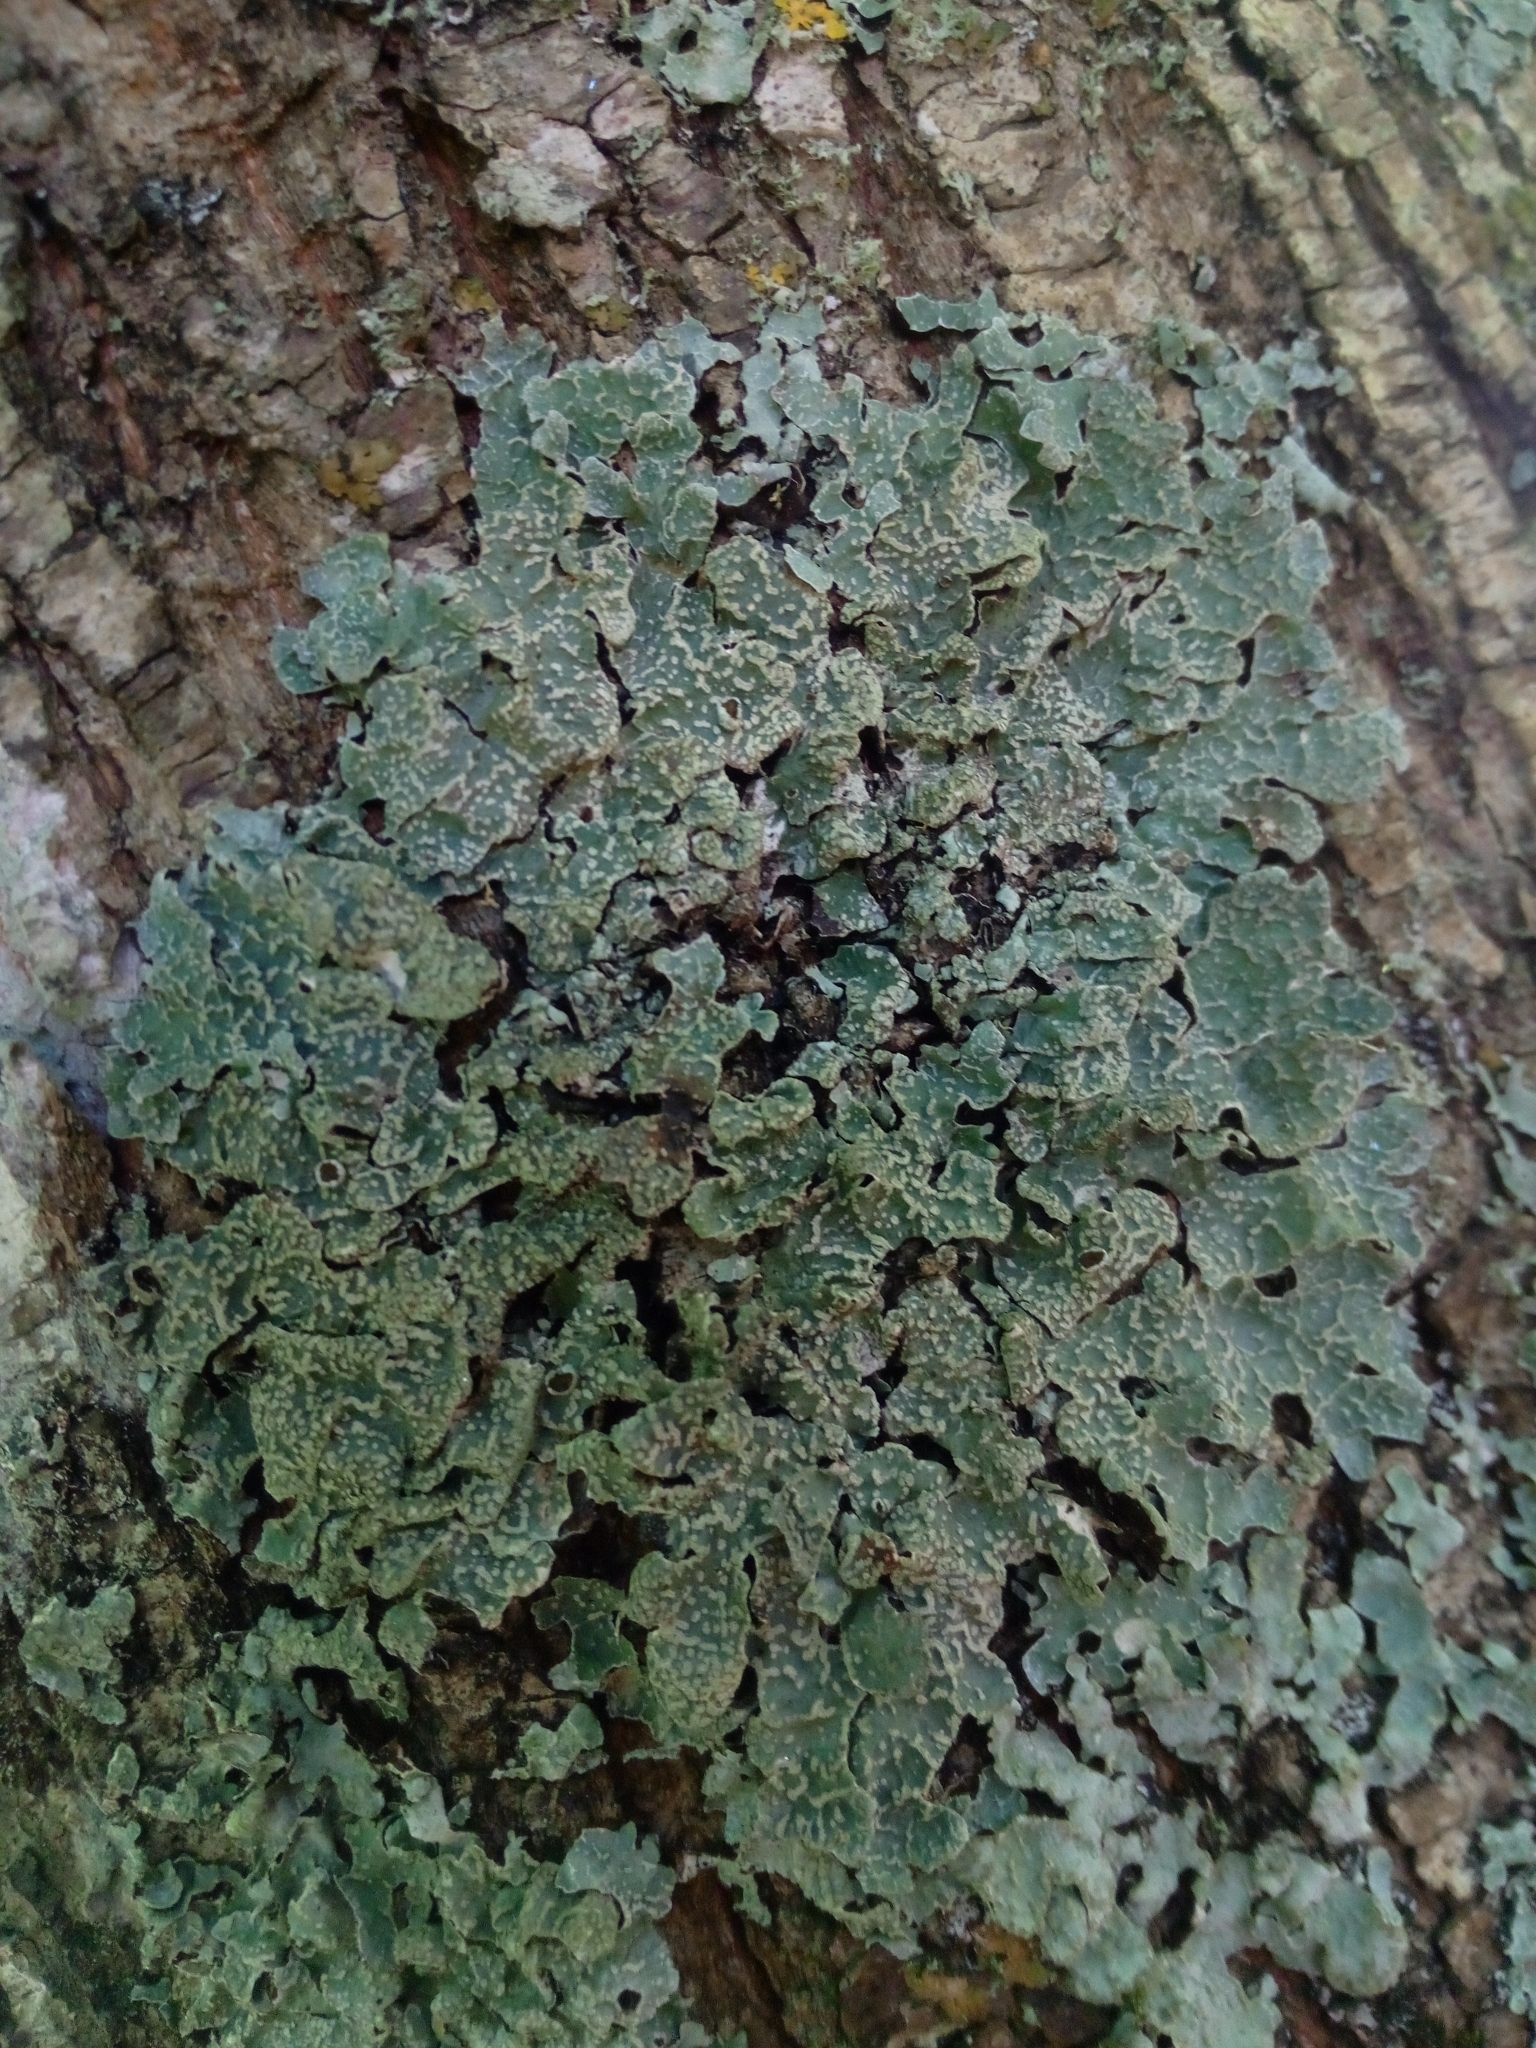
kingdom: Fungi
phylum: Ascomycota
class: Lecanoromycetes
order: Lecanorales
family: Parmeliaceae
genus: Parmelia
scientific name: Parmelia sulcata
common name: Netted shield lichen
